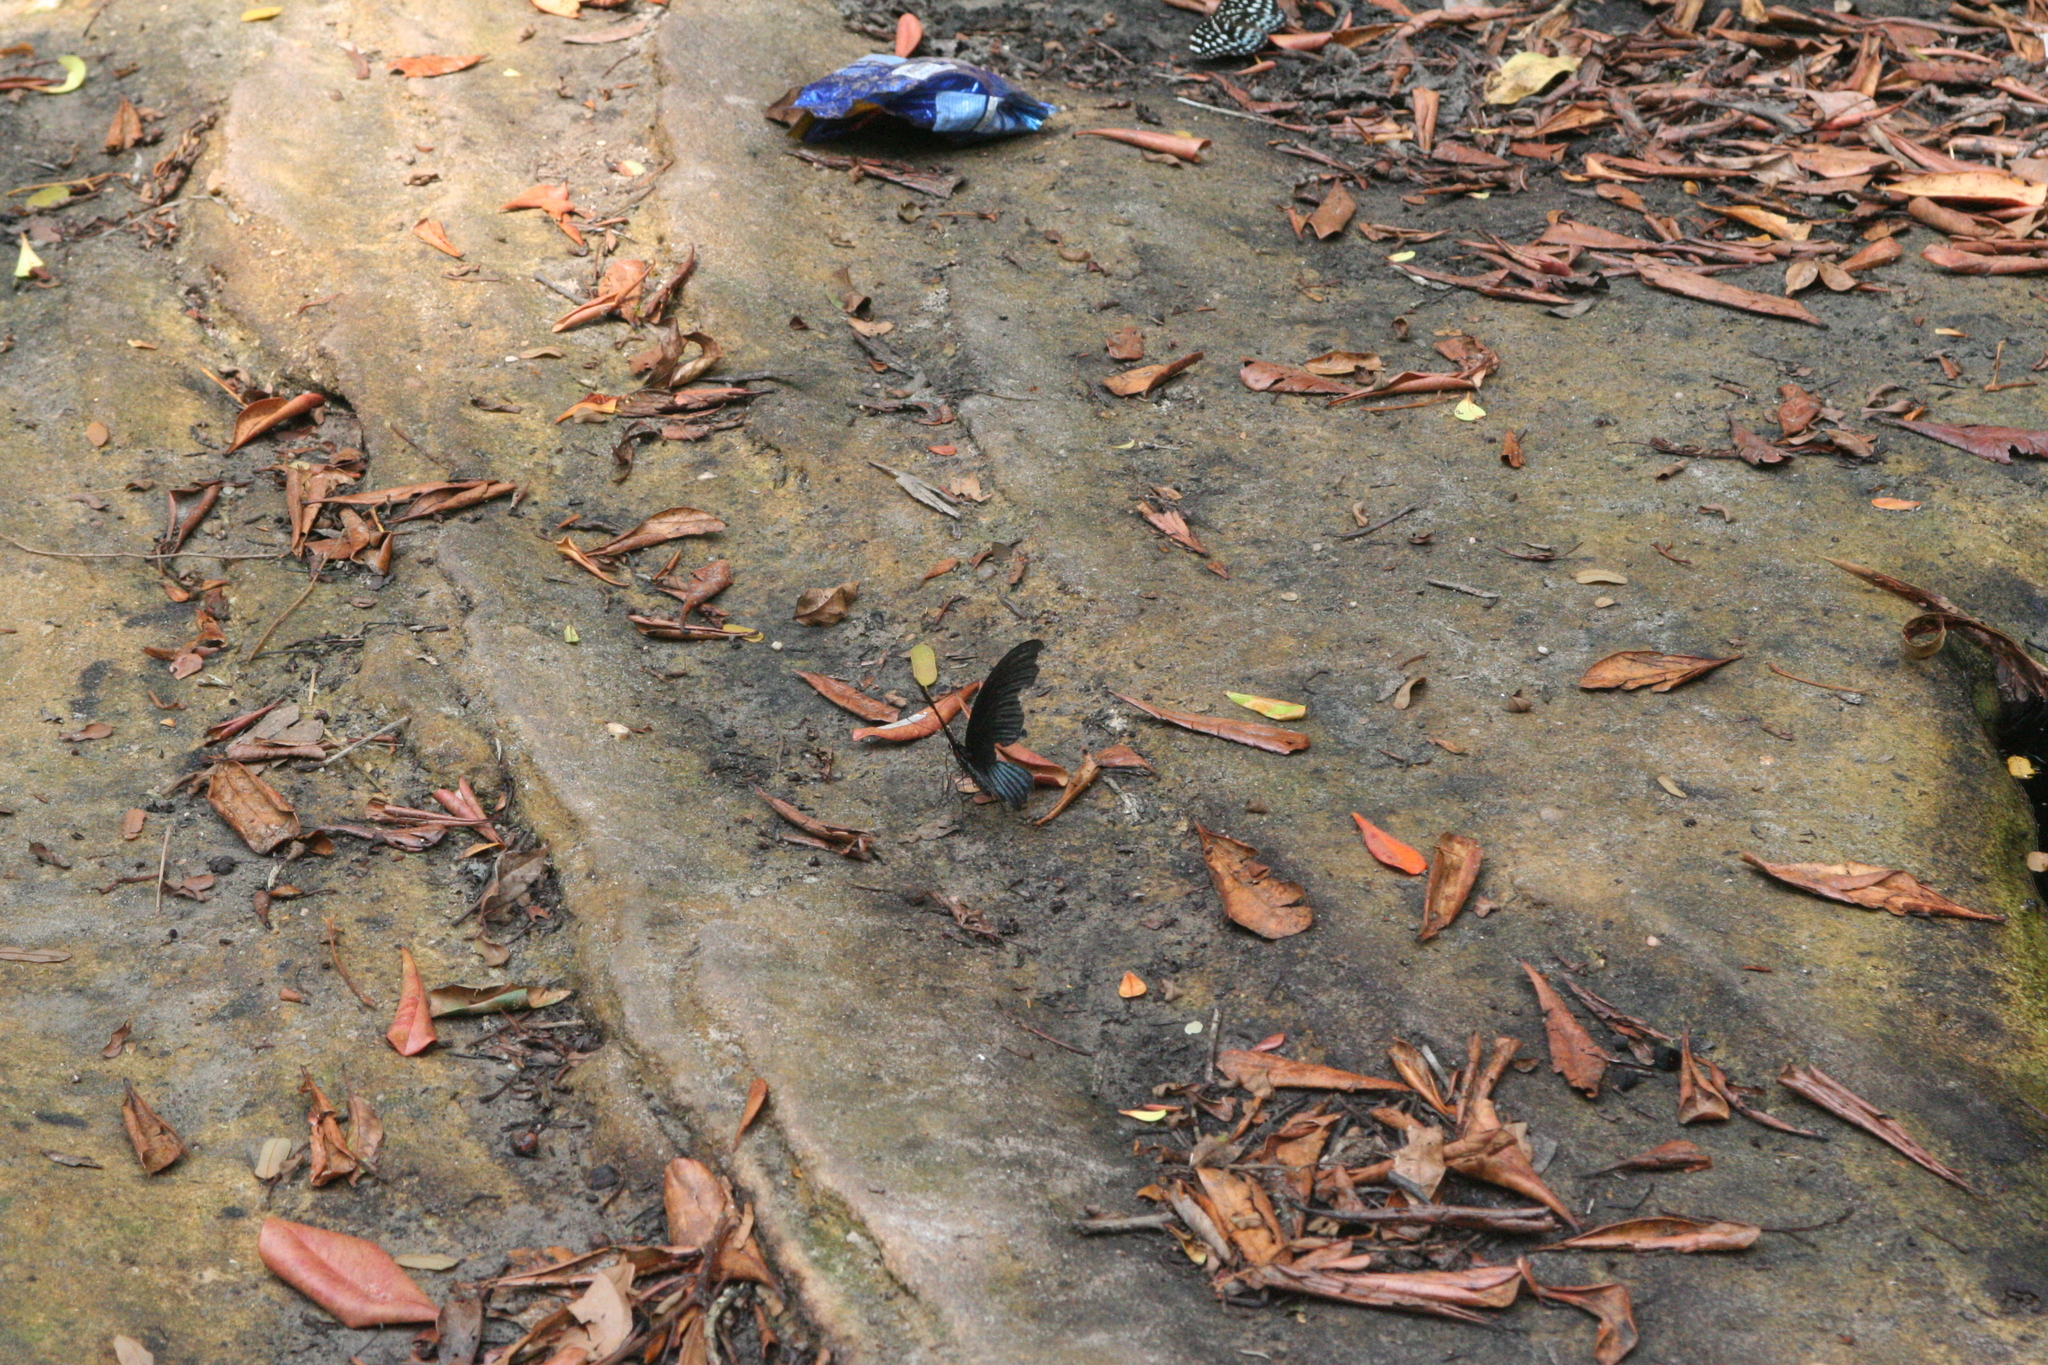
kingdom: Animalia
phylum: Arthropoda
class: Insecta
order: Lepidoptera
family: Papilionidae
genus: Papilio
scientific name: Papilio memnon
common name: Great mormon
